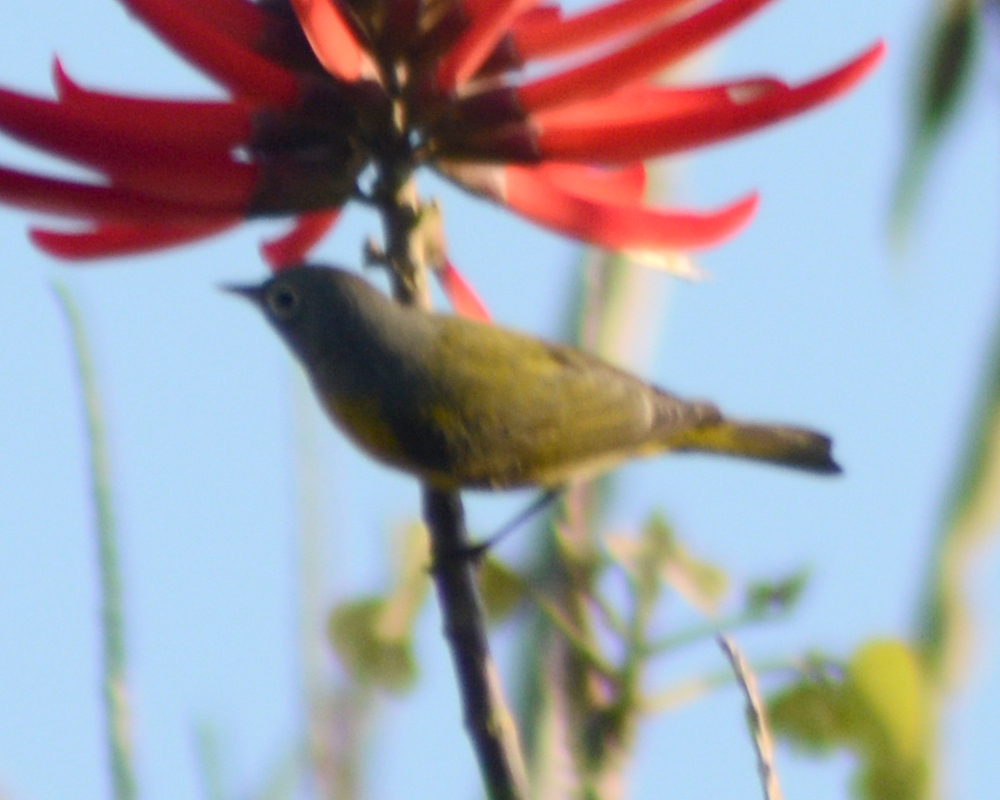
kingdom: Animalia
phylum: Chordata
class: Aves
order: Passeriformes
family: Parulidae
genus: Leiothlypis
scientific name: Leiothlypis ruficapilla
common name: Nashville warbler
